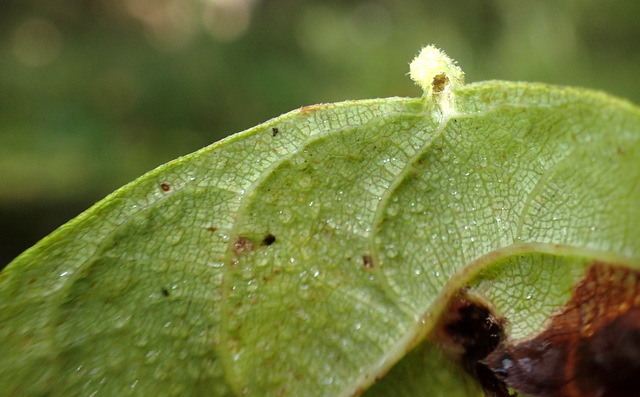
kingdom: Animalia
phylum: Arthropoda
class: Arachnida
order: Trombidiformes
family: Eriophyidae
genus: Aceria
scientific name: Aceria
